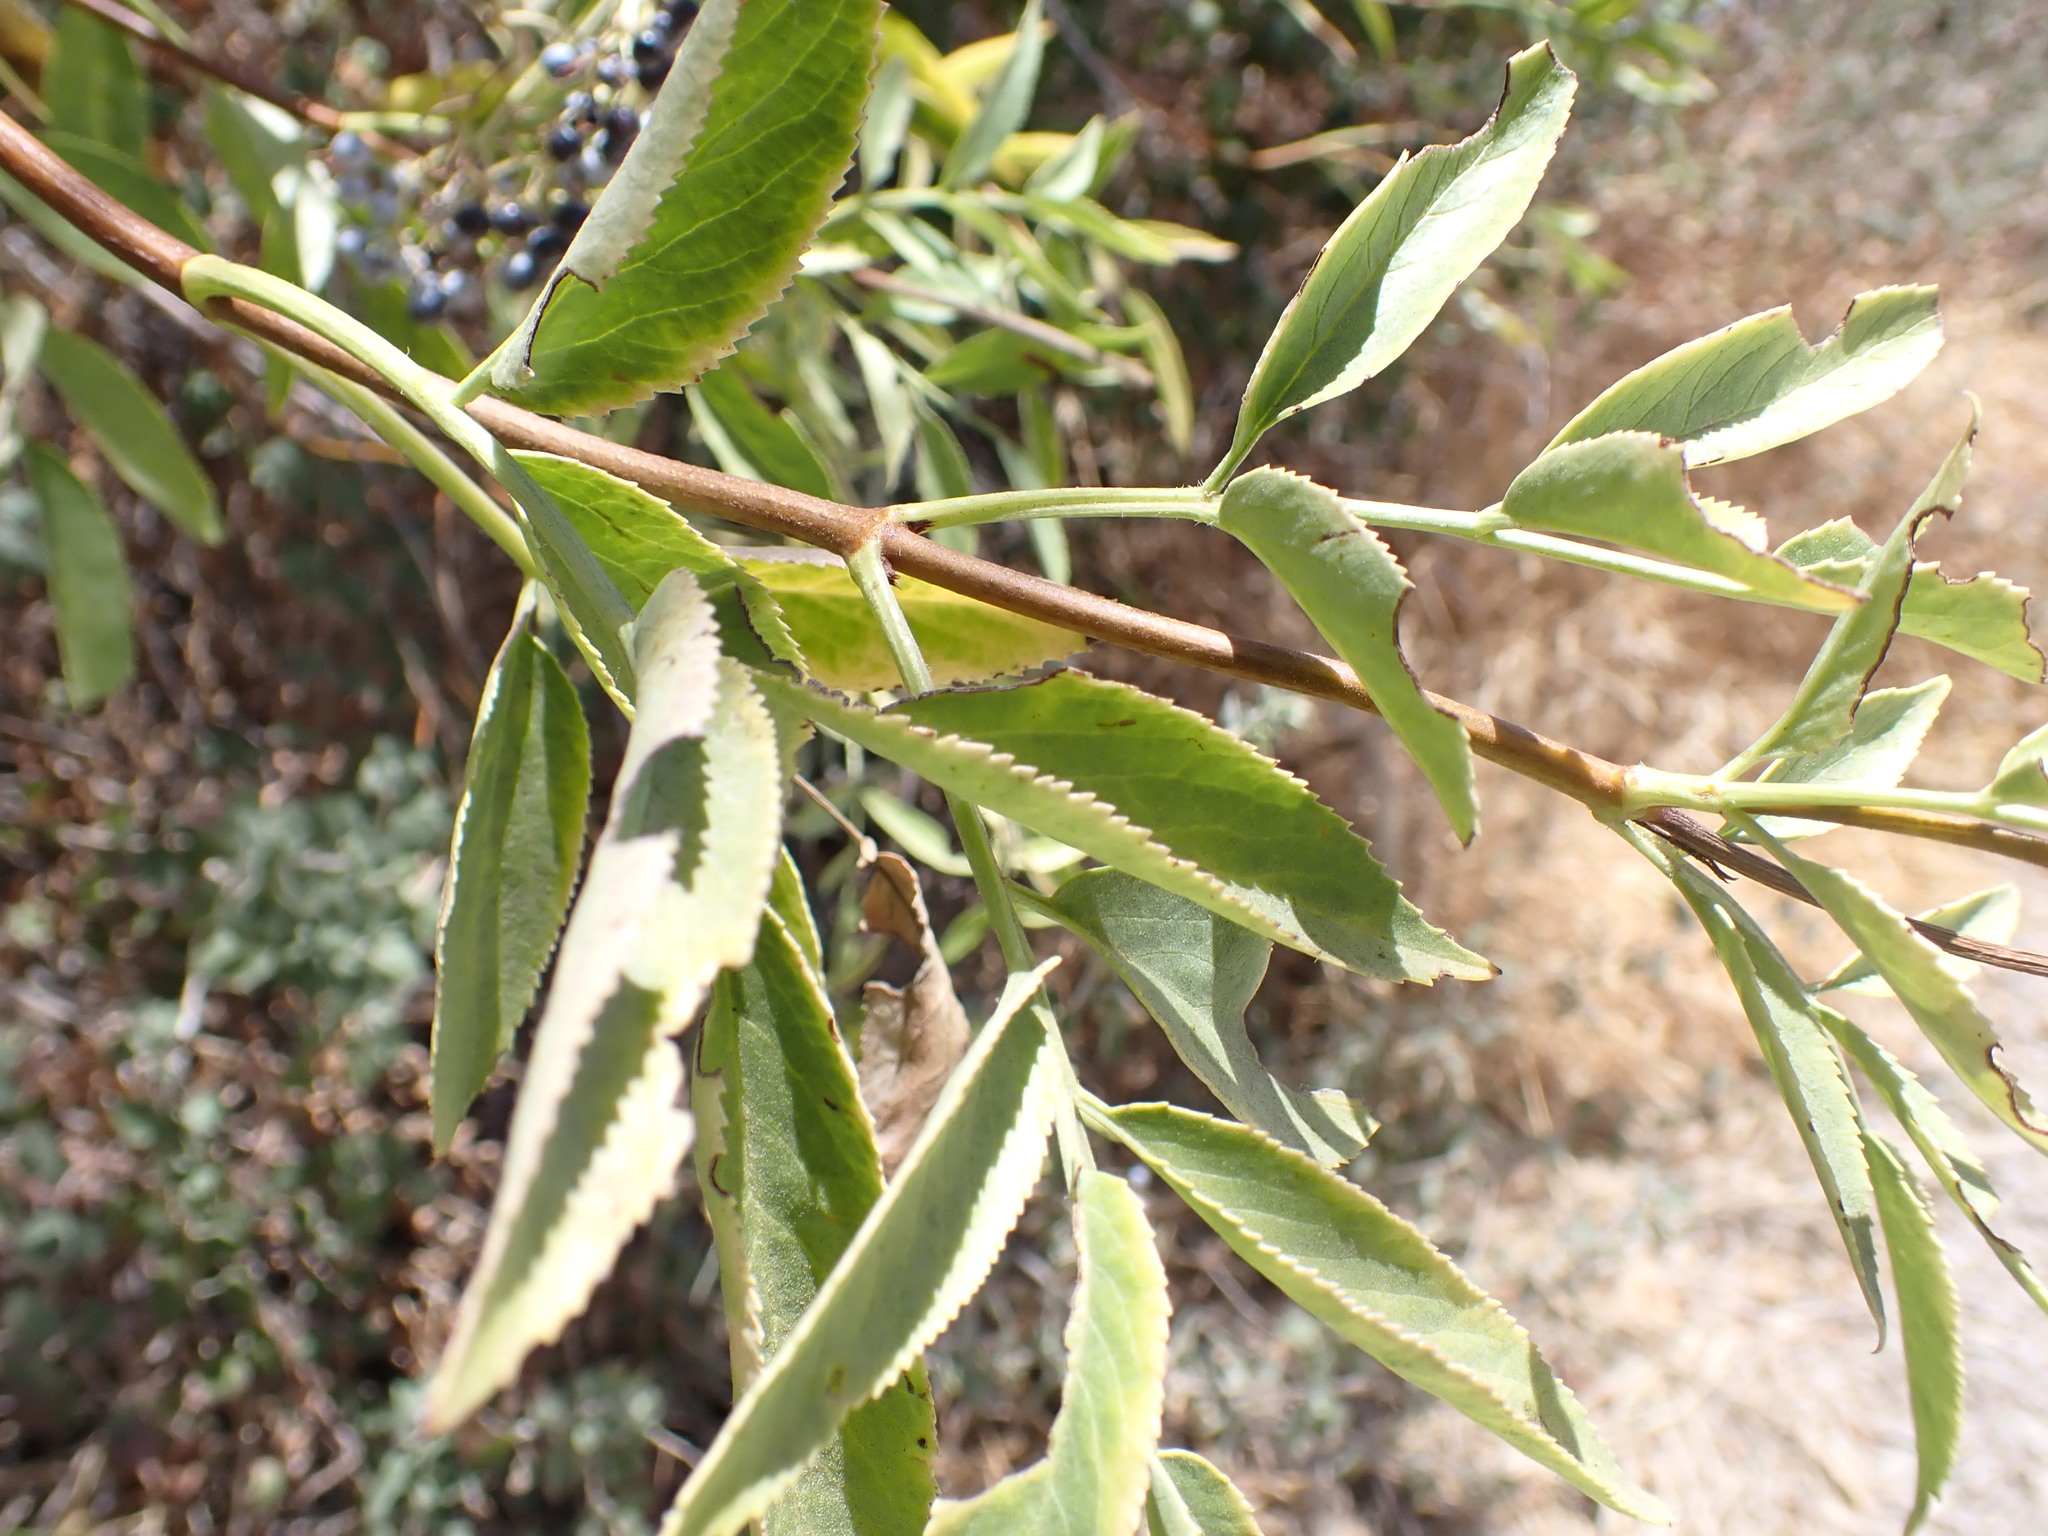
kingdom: Plantae
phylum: Tracheophyta
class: Magnoliopsida
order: Dipsacales
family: Viburnaceae
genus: Sambucus
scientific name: Sambucus cerulea
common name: Blue elder
